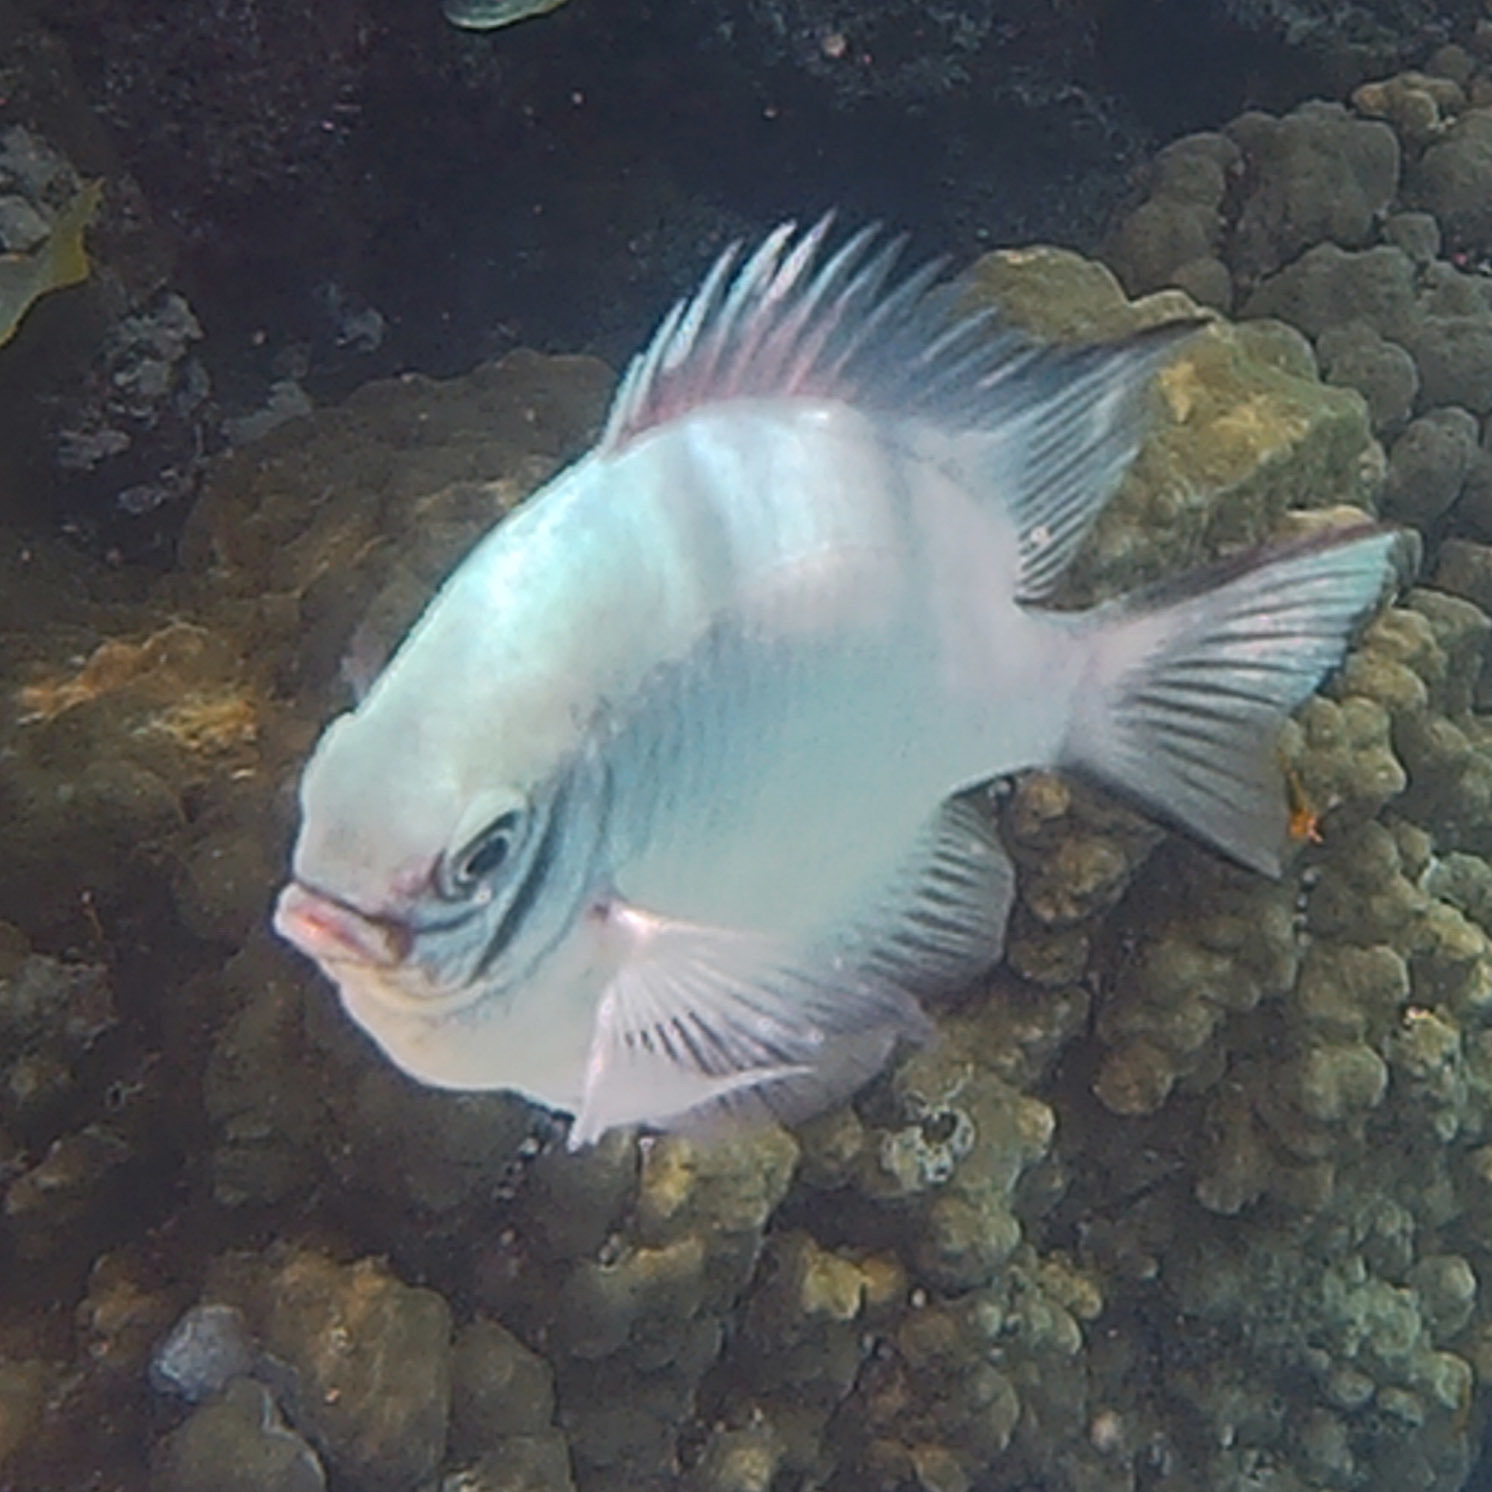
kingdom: Animalia
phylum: Chordata
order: Perciformes
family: Pomacentridae
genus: Amblyglyphidodon
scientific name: Amblyglyphidodon indicus
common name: Maldives damselfish
